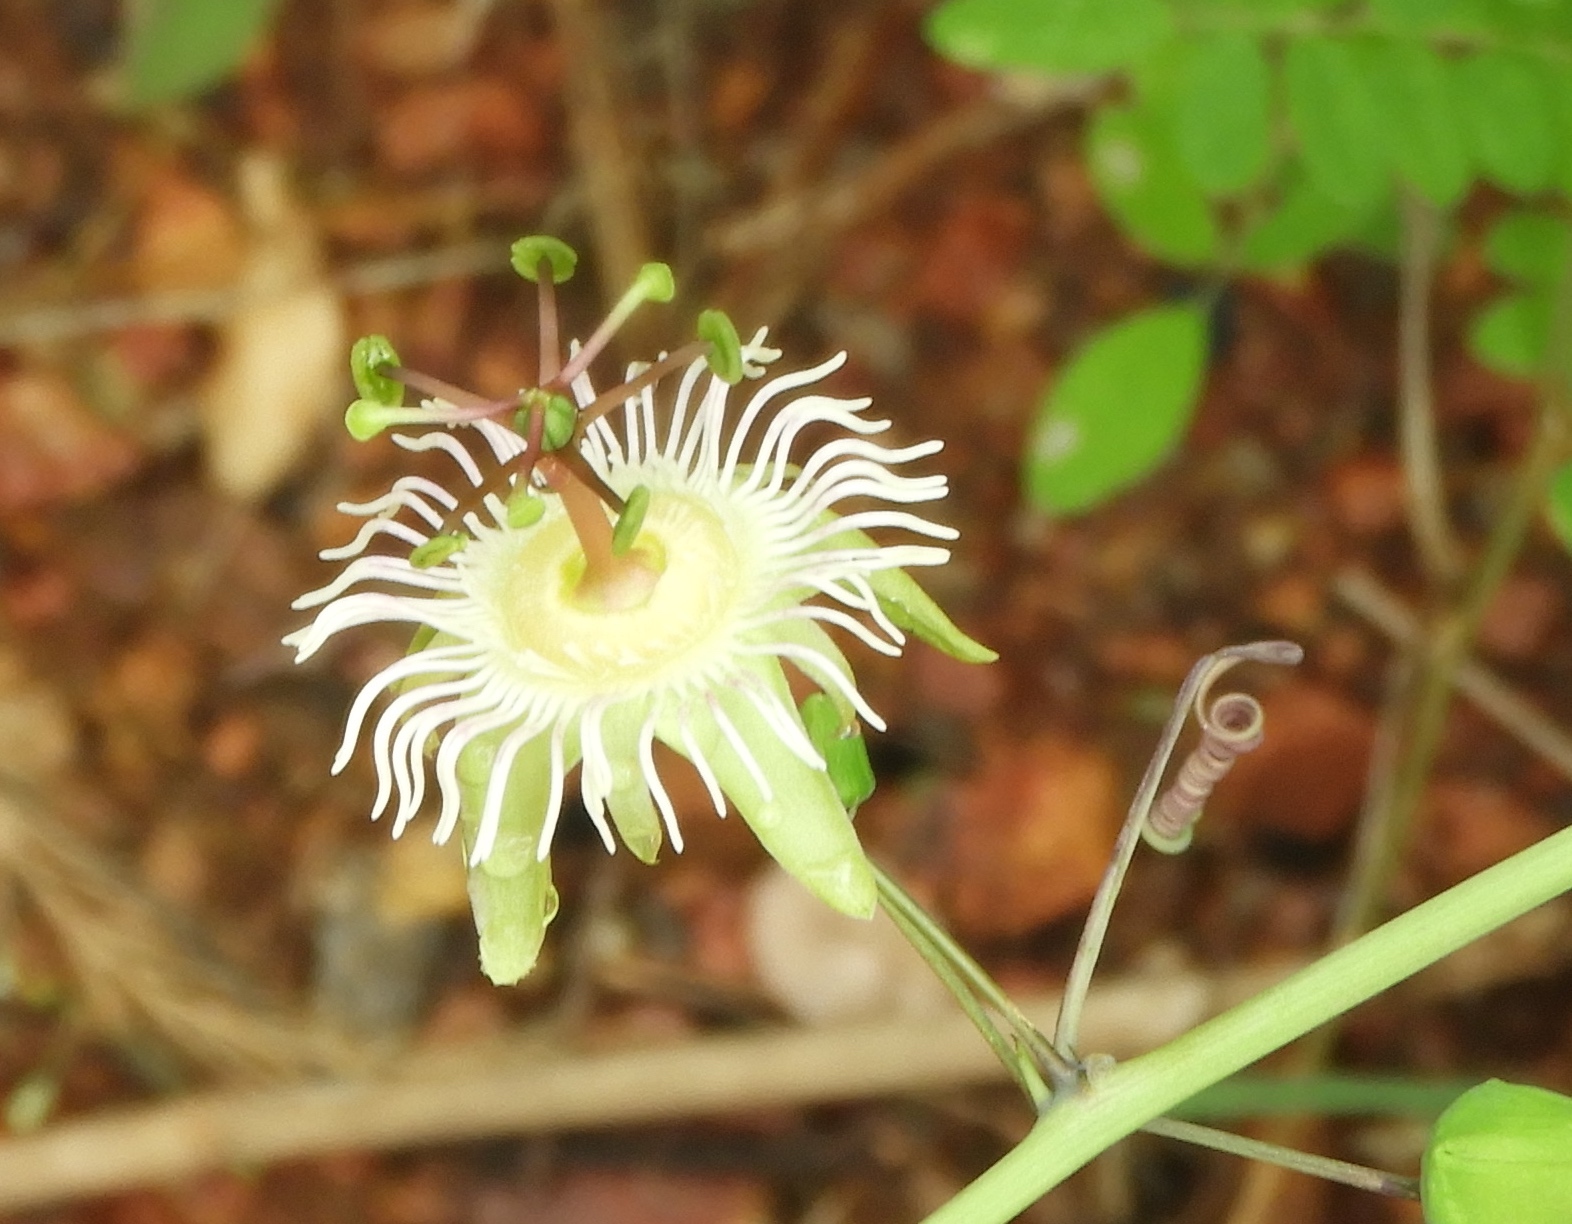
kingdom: Plantae
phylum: Tracheophyta
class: Magnoliopsida
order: Malpighiales
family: Passifloraceae
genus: Passiflora
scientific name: Passiflora mexicana
